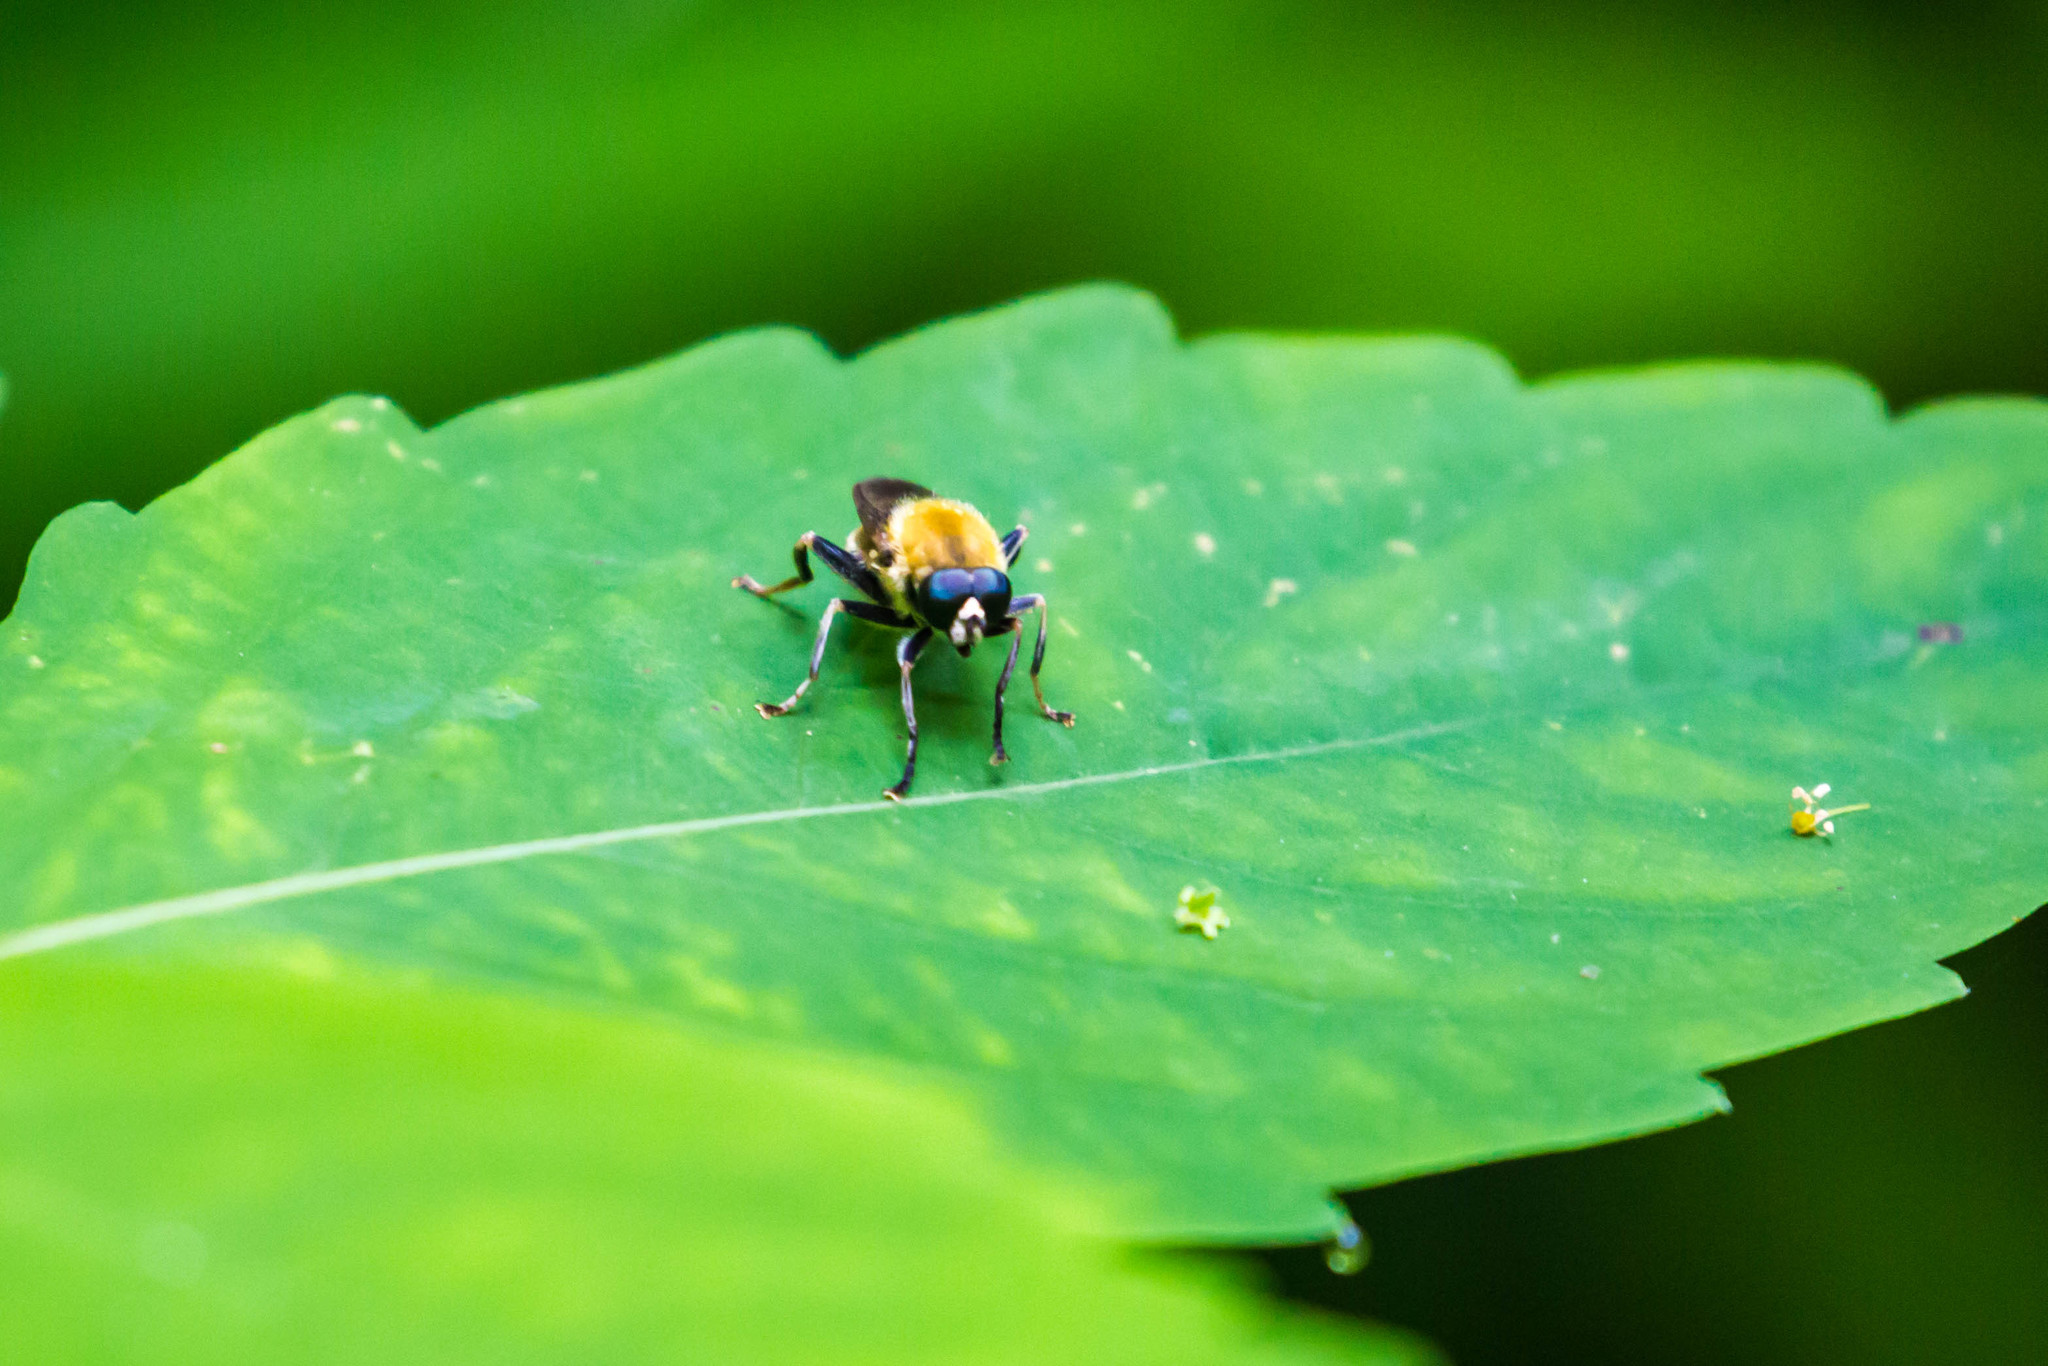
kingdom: Animalia
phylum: Arthropoda
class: Insecta
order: Diptera
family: Syrphidae
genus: Pterallastes
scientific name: Pterallastes thoracicus
